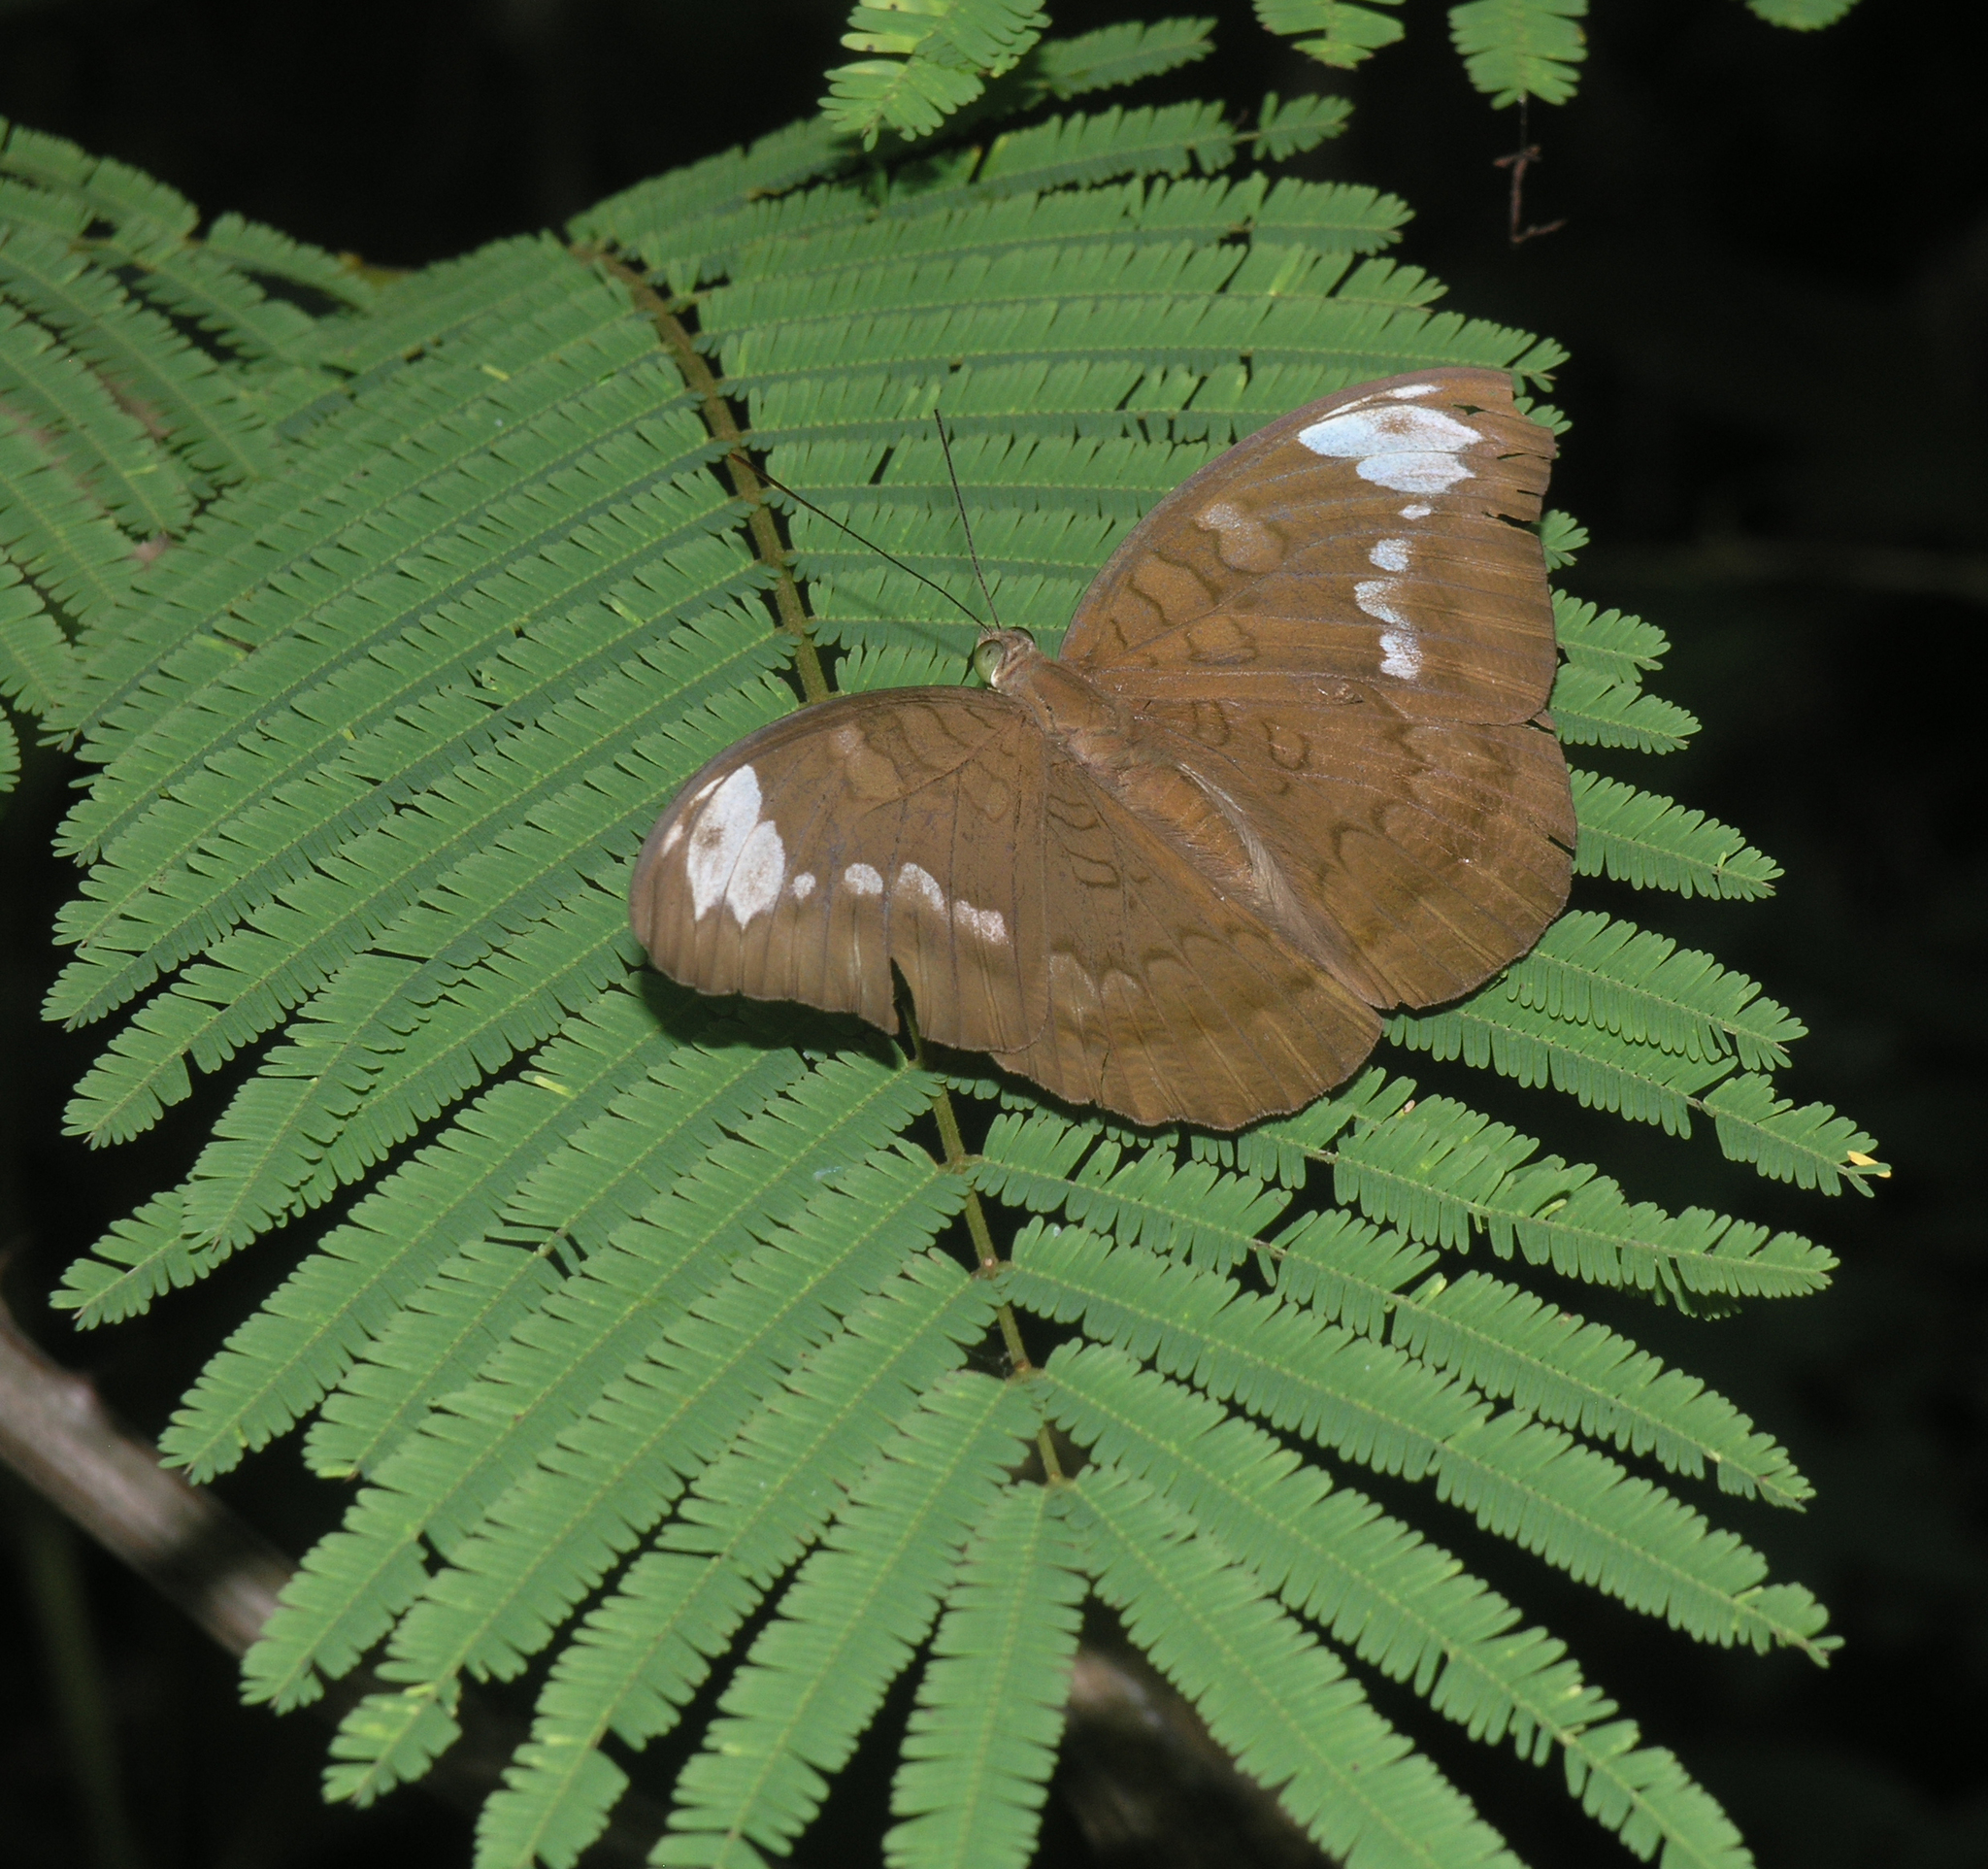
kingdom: Animalia
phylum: Arthropoda
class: Insecta
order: Lepidoptera
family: Nymphalidae
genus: Tanaecia
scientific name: Tanaecia julii
